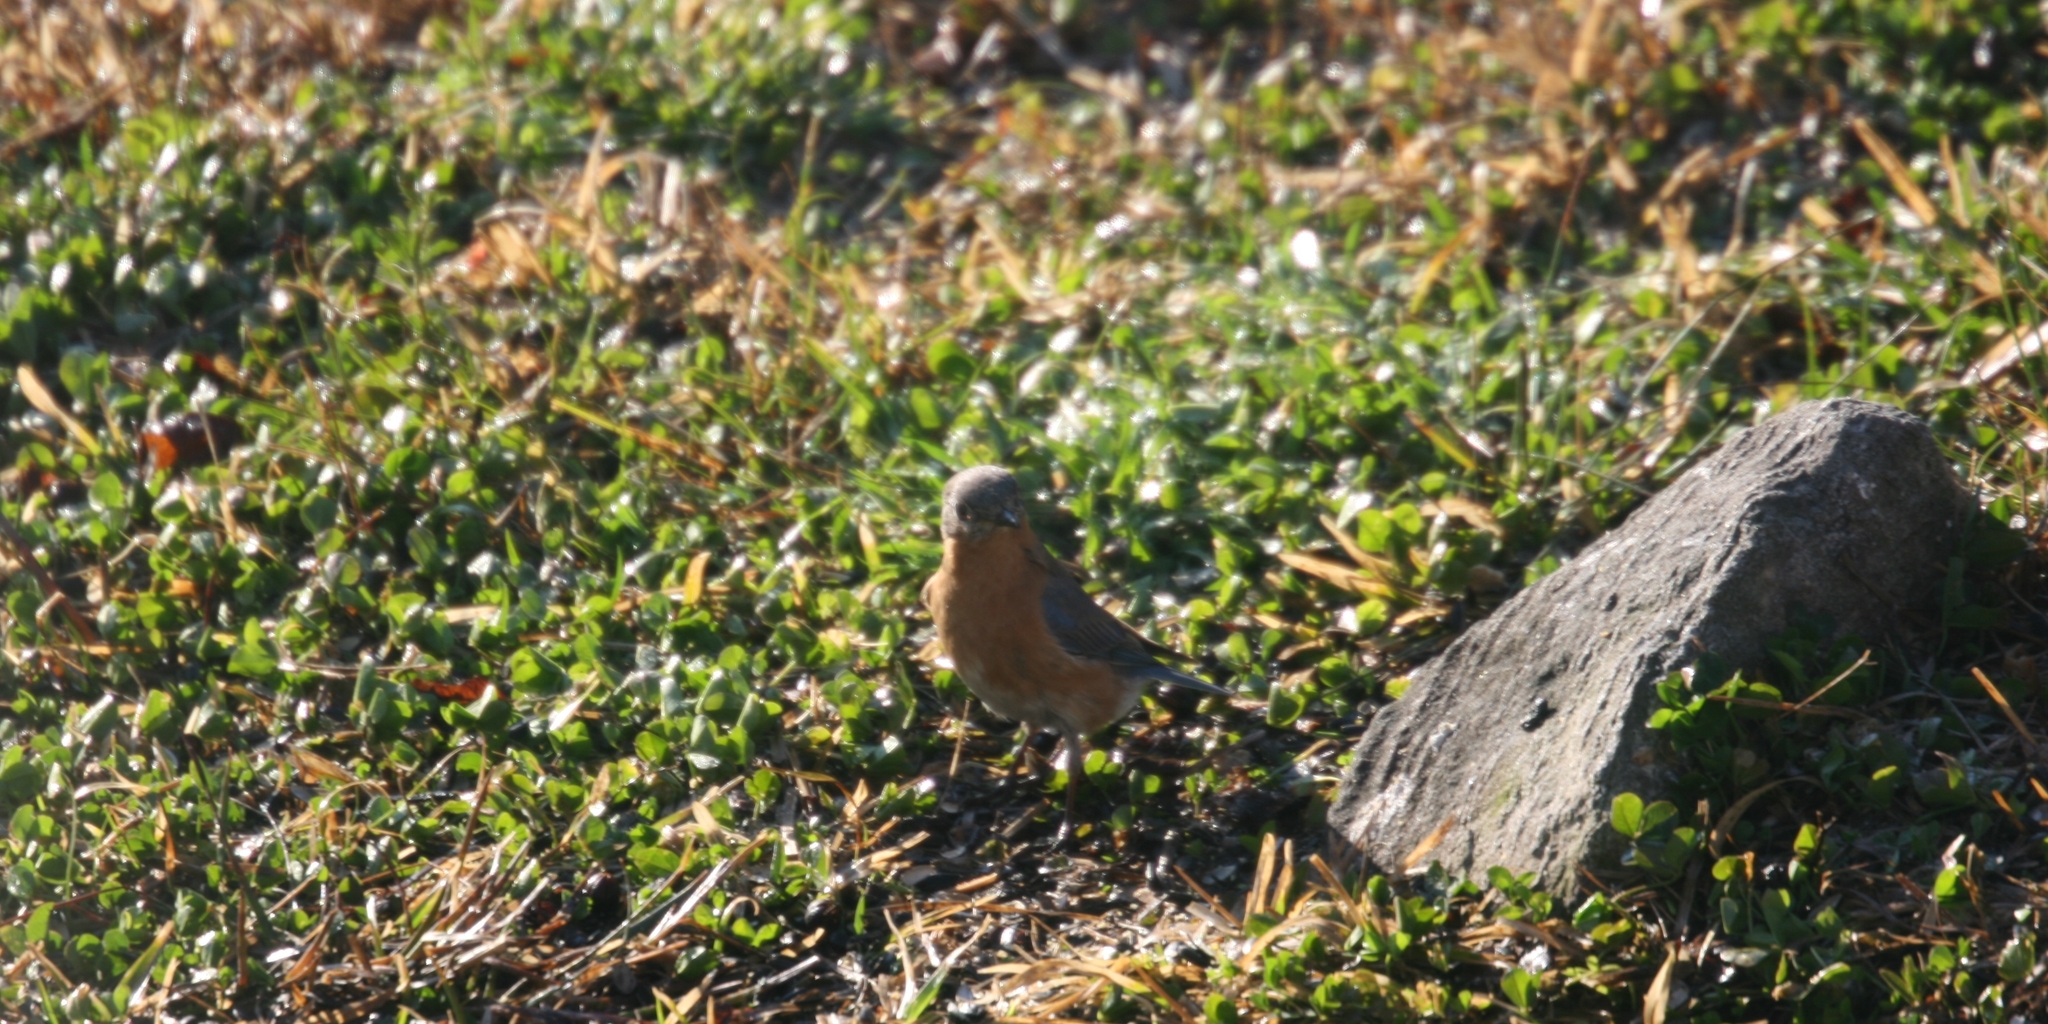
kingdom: Animalia
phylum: Chordata
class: Aves
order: Passeriformes
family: Turdidae
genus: Sialia
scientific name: Sialia sialis
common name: Eastern bluebird
